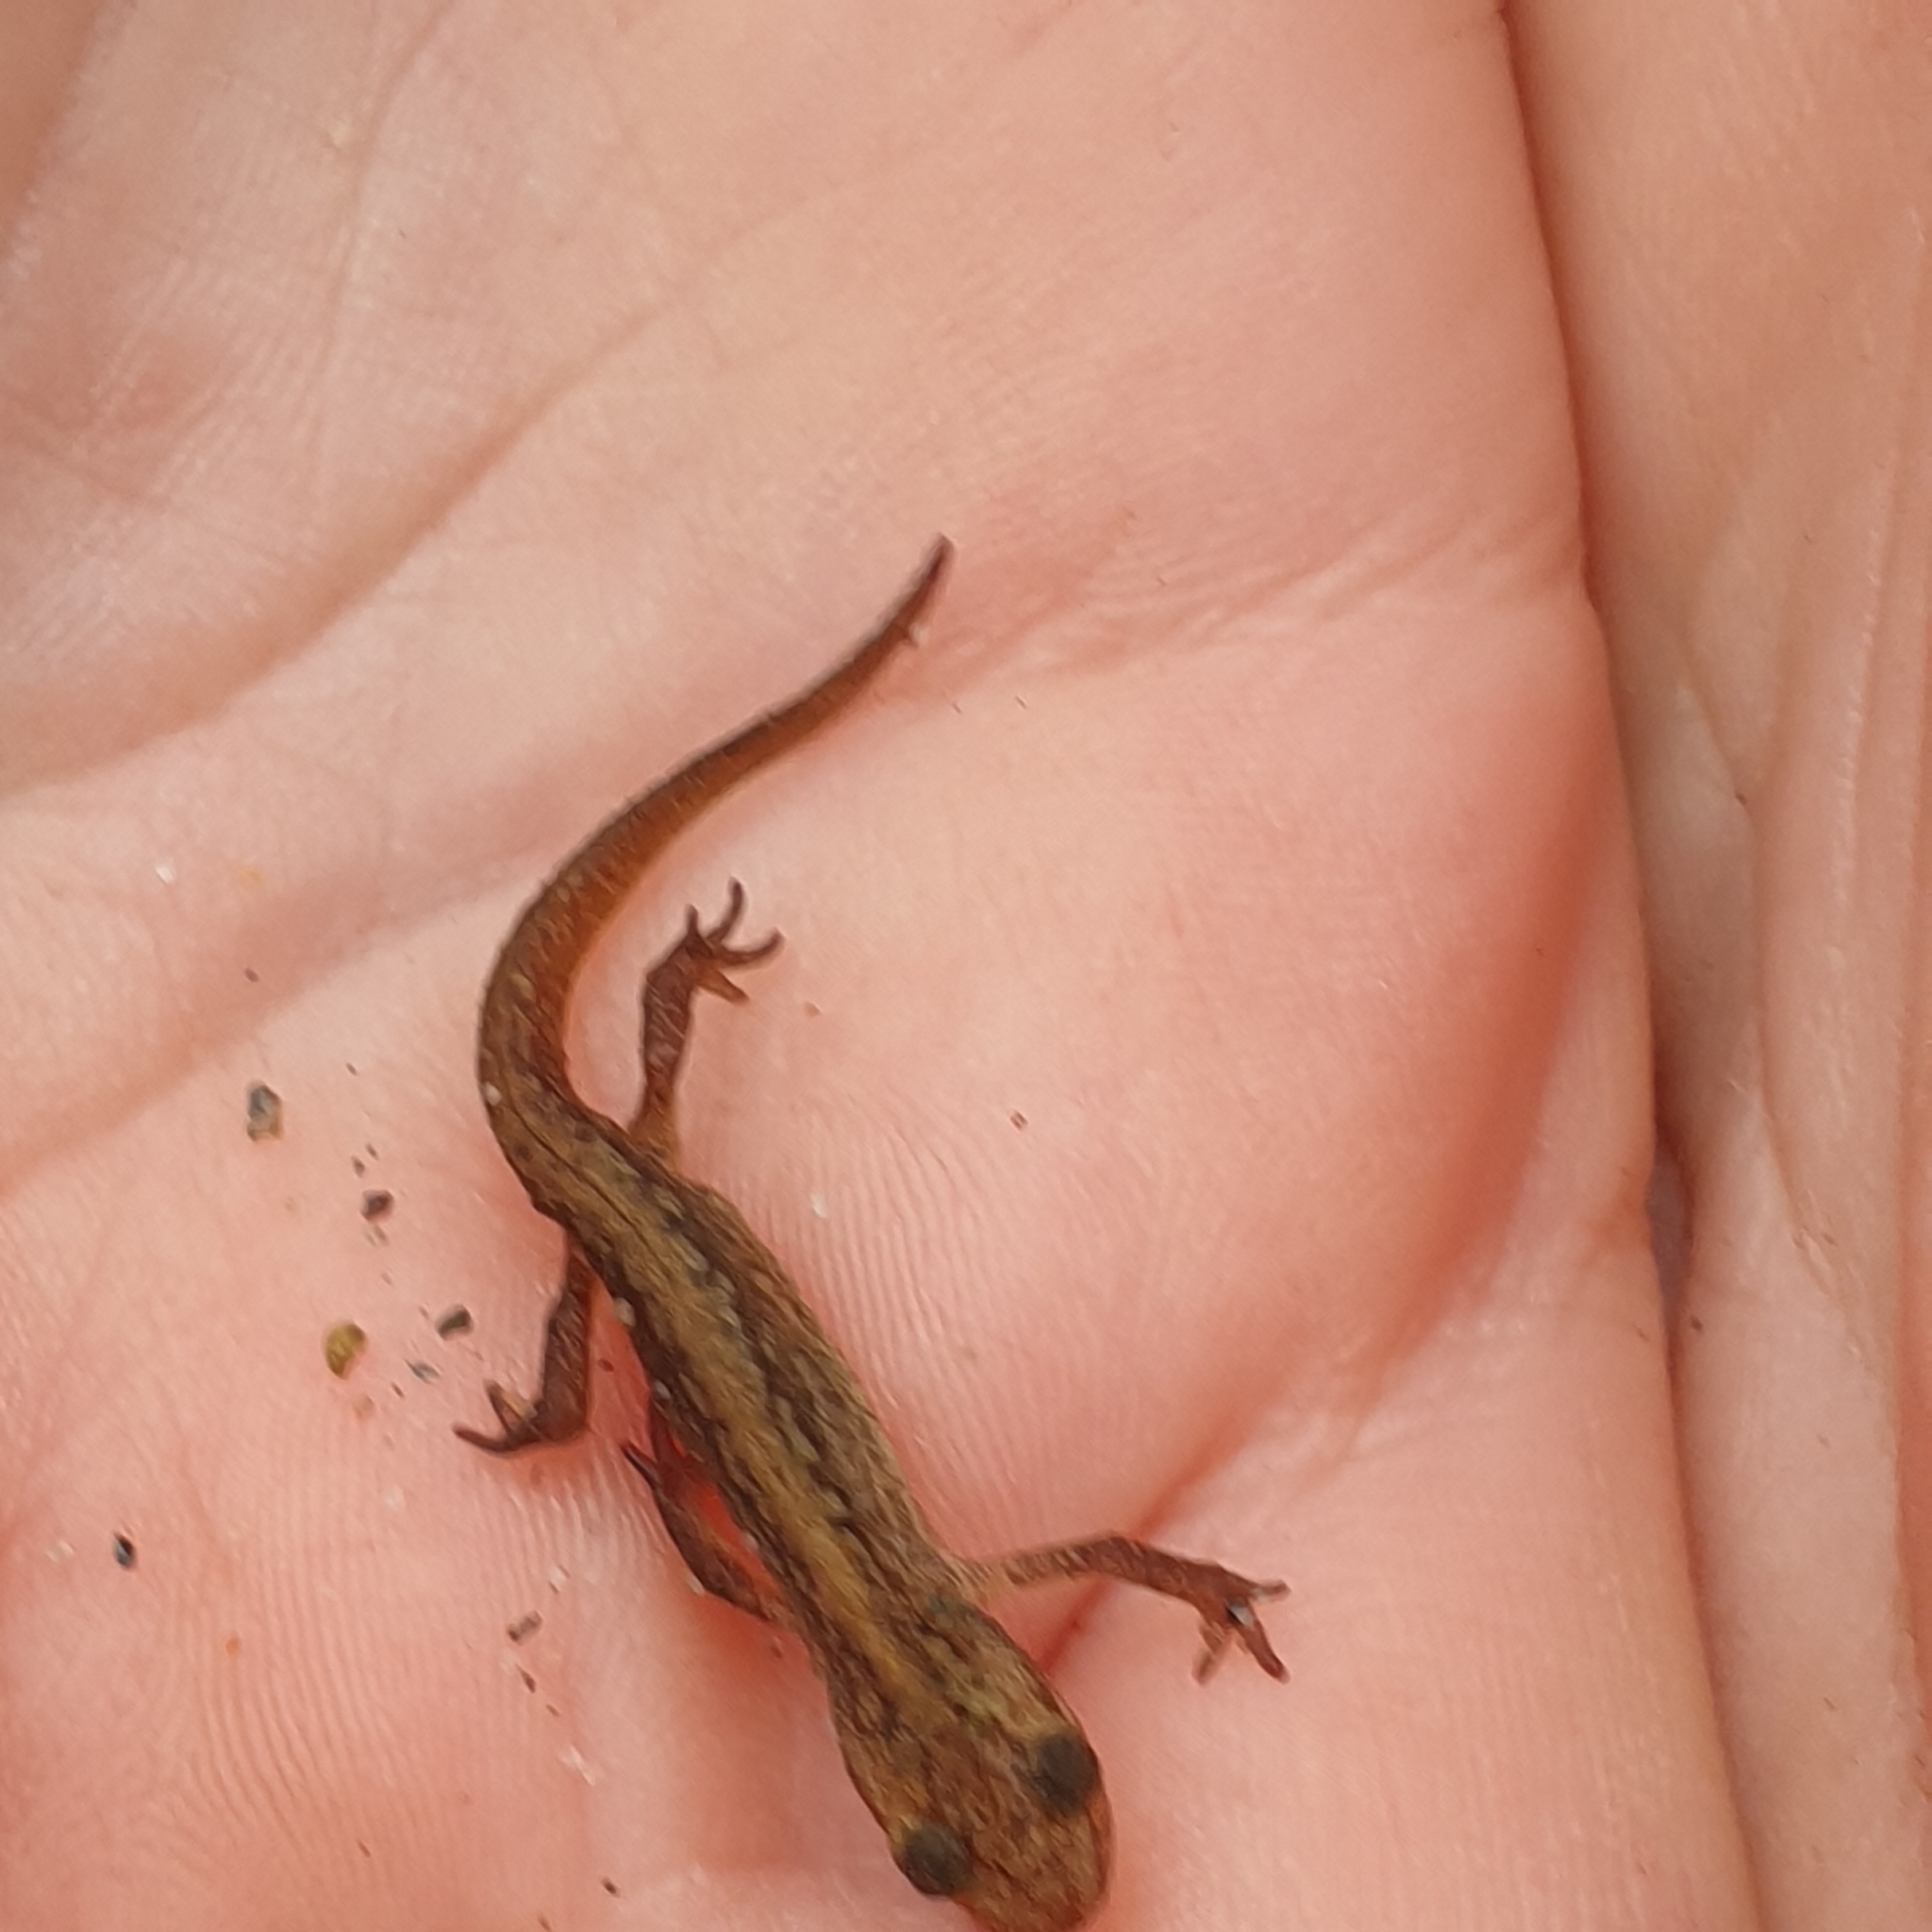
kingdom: Animalia
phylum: Chordata
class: Amphibia
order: Caudata
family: Salamandridae
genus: Lissotriton
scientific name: Lissotriton vulgaris
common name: Smooth newt
